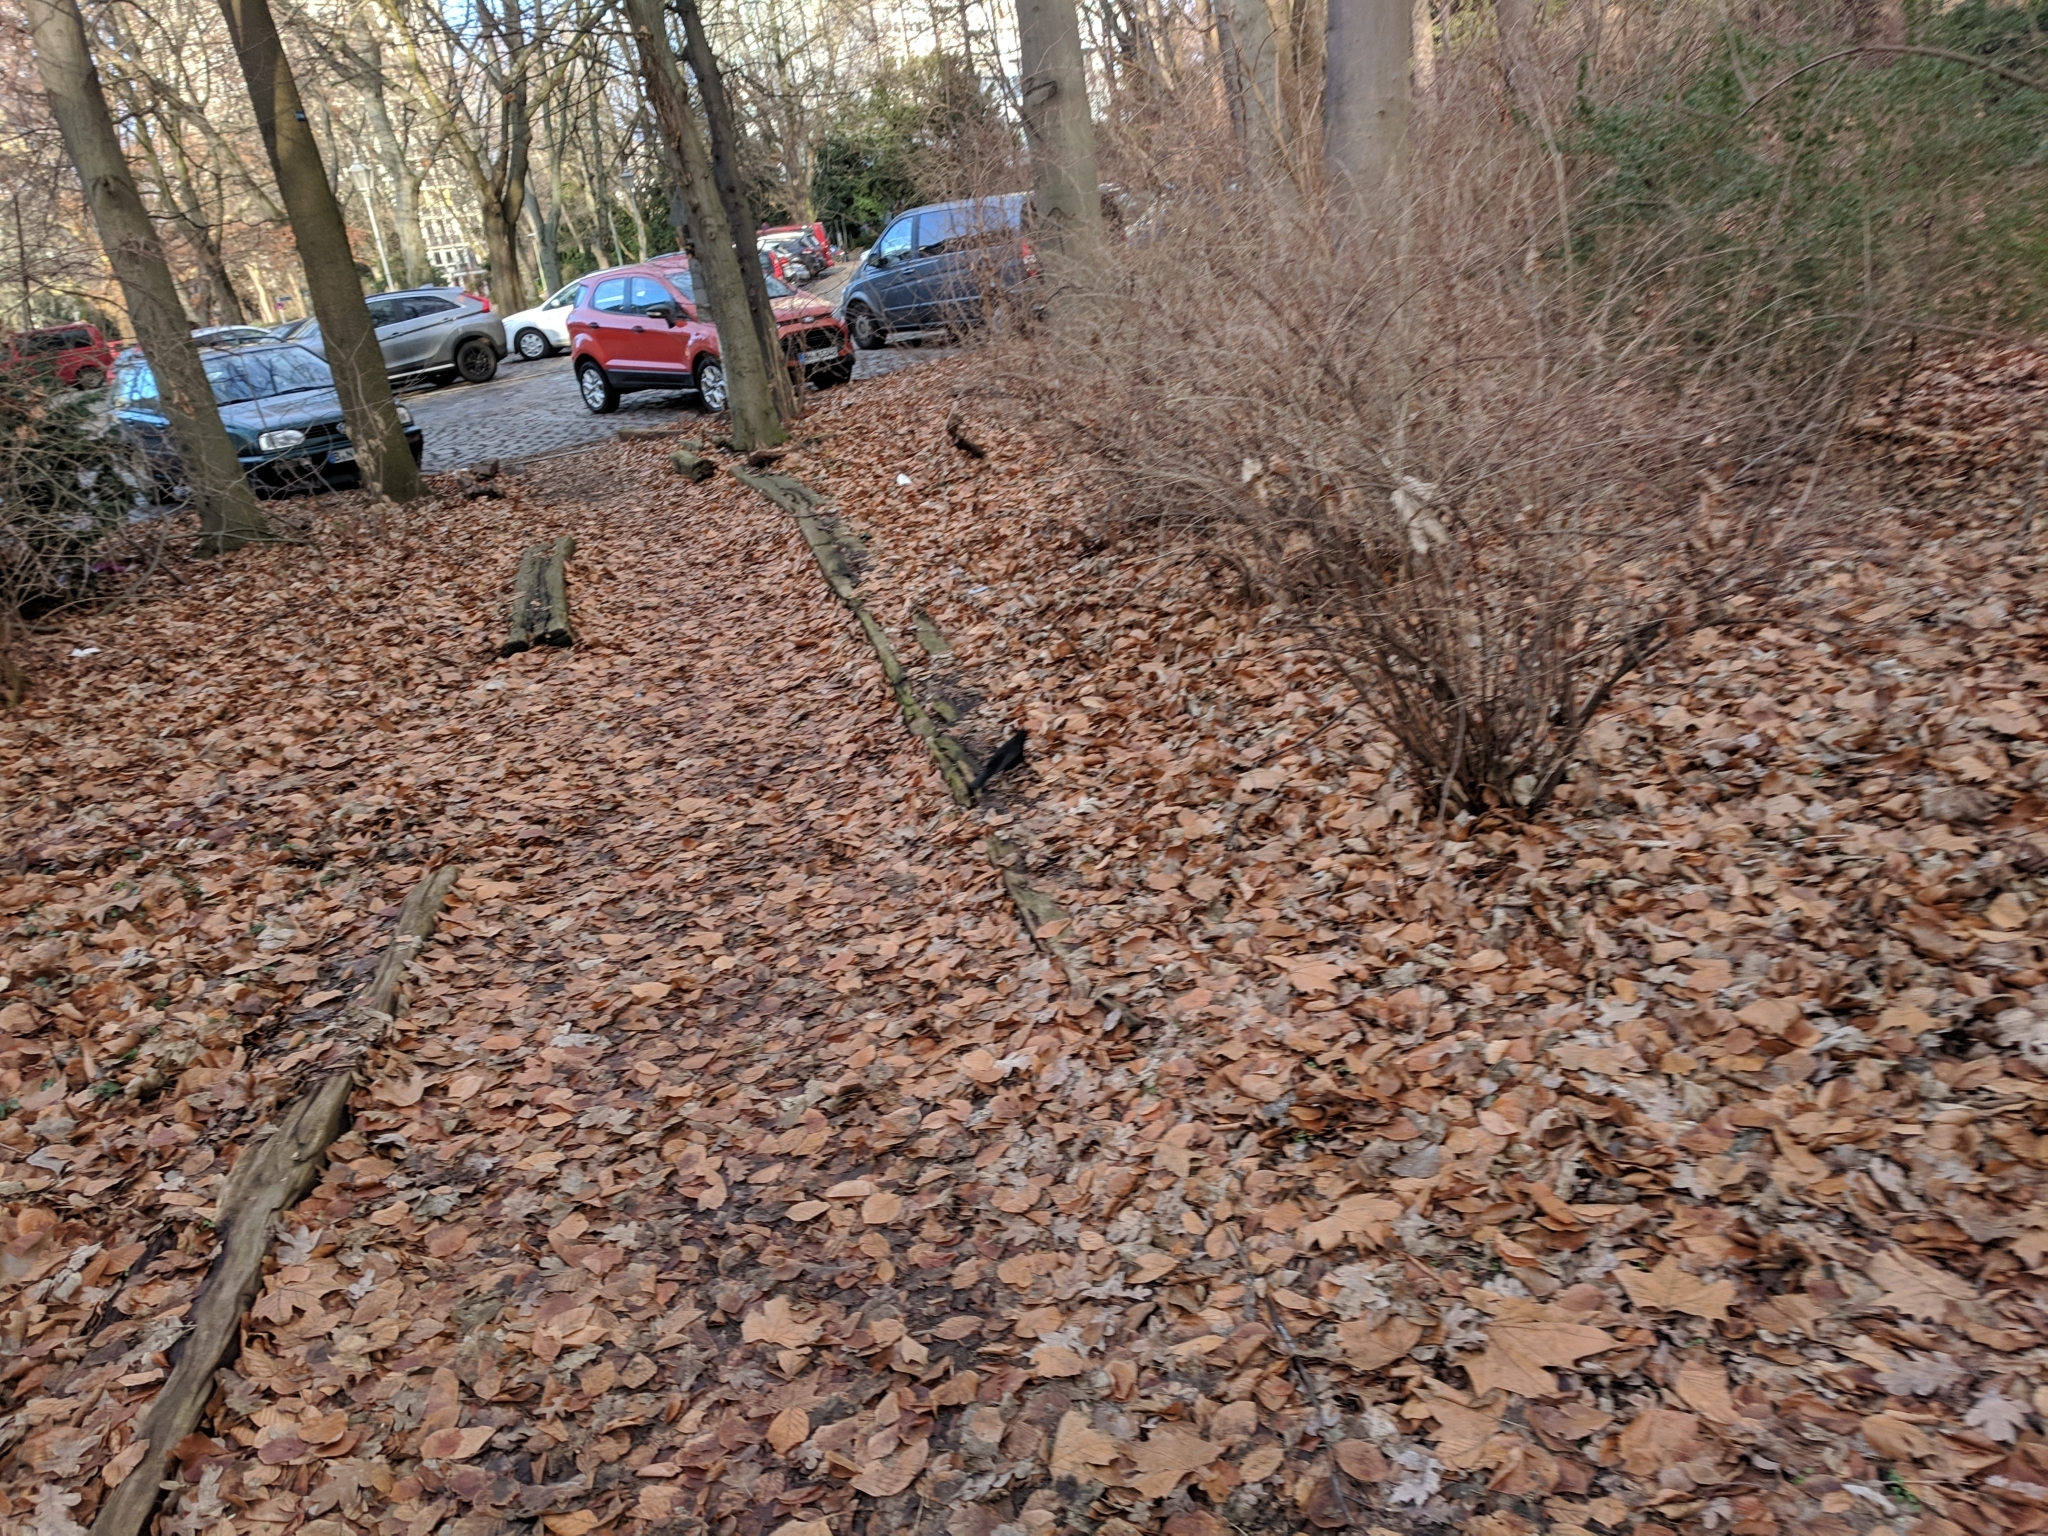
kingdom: Animalia
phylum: Chordata
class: Aves
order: Passeriformes
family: Turdidae
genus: Turdus
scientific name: Turdus merula
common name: Common blackbird
